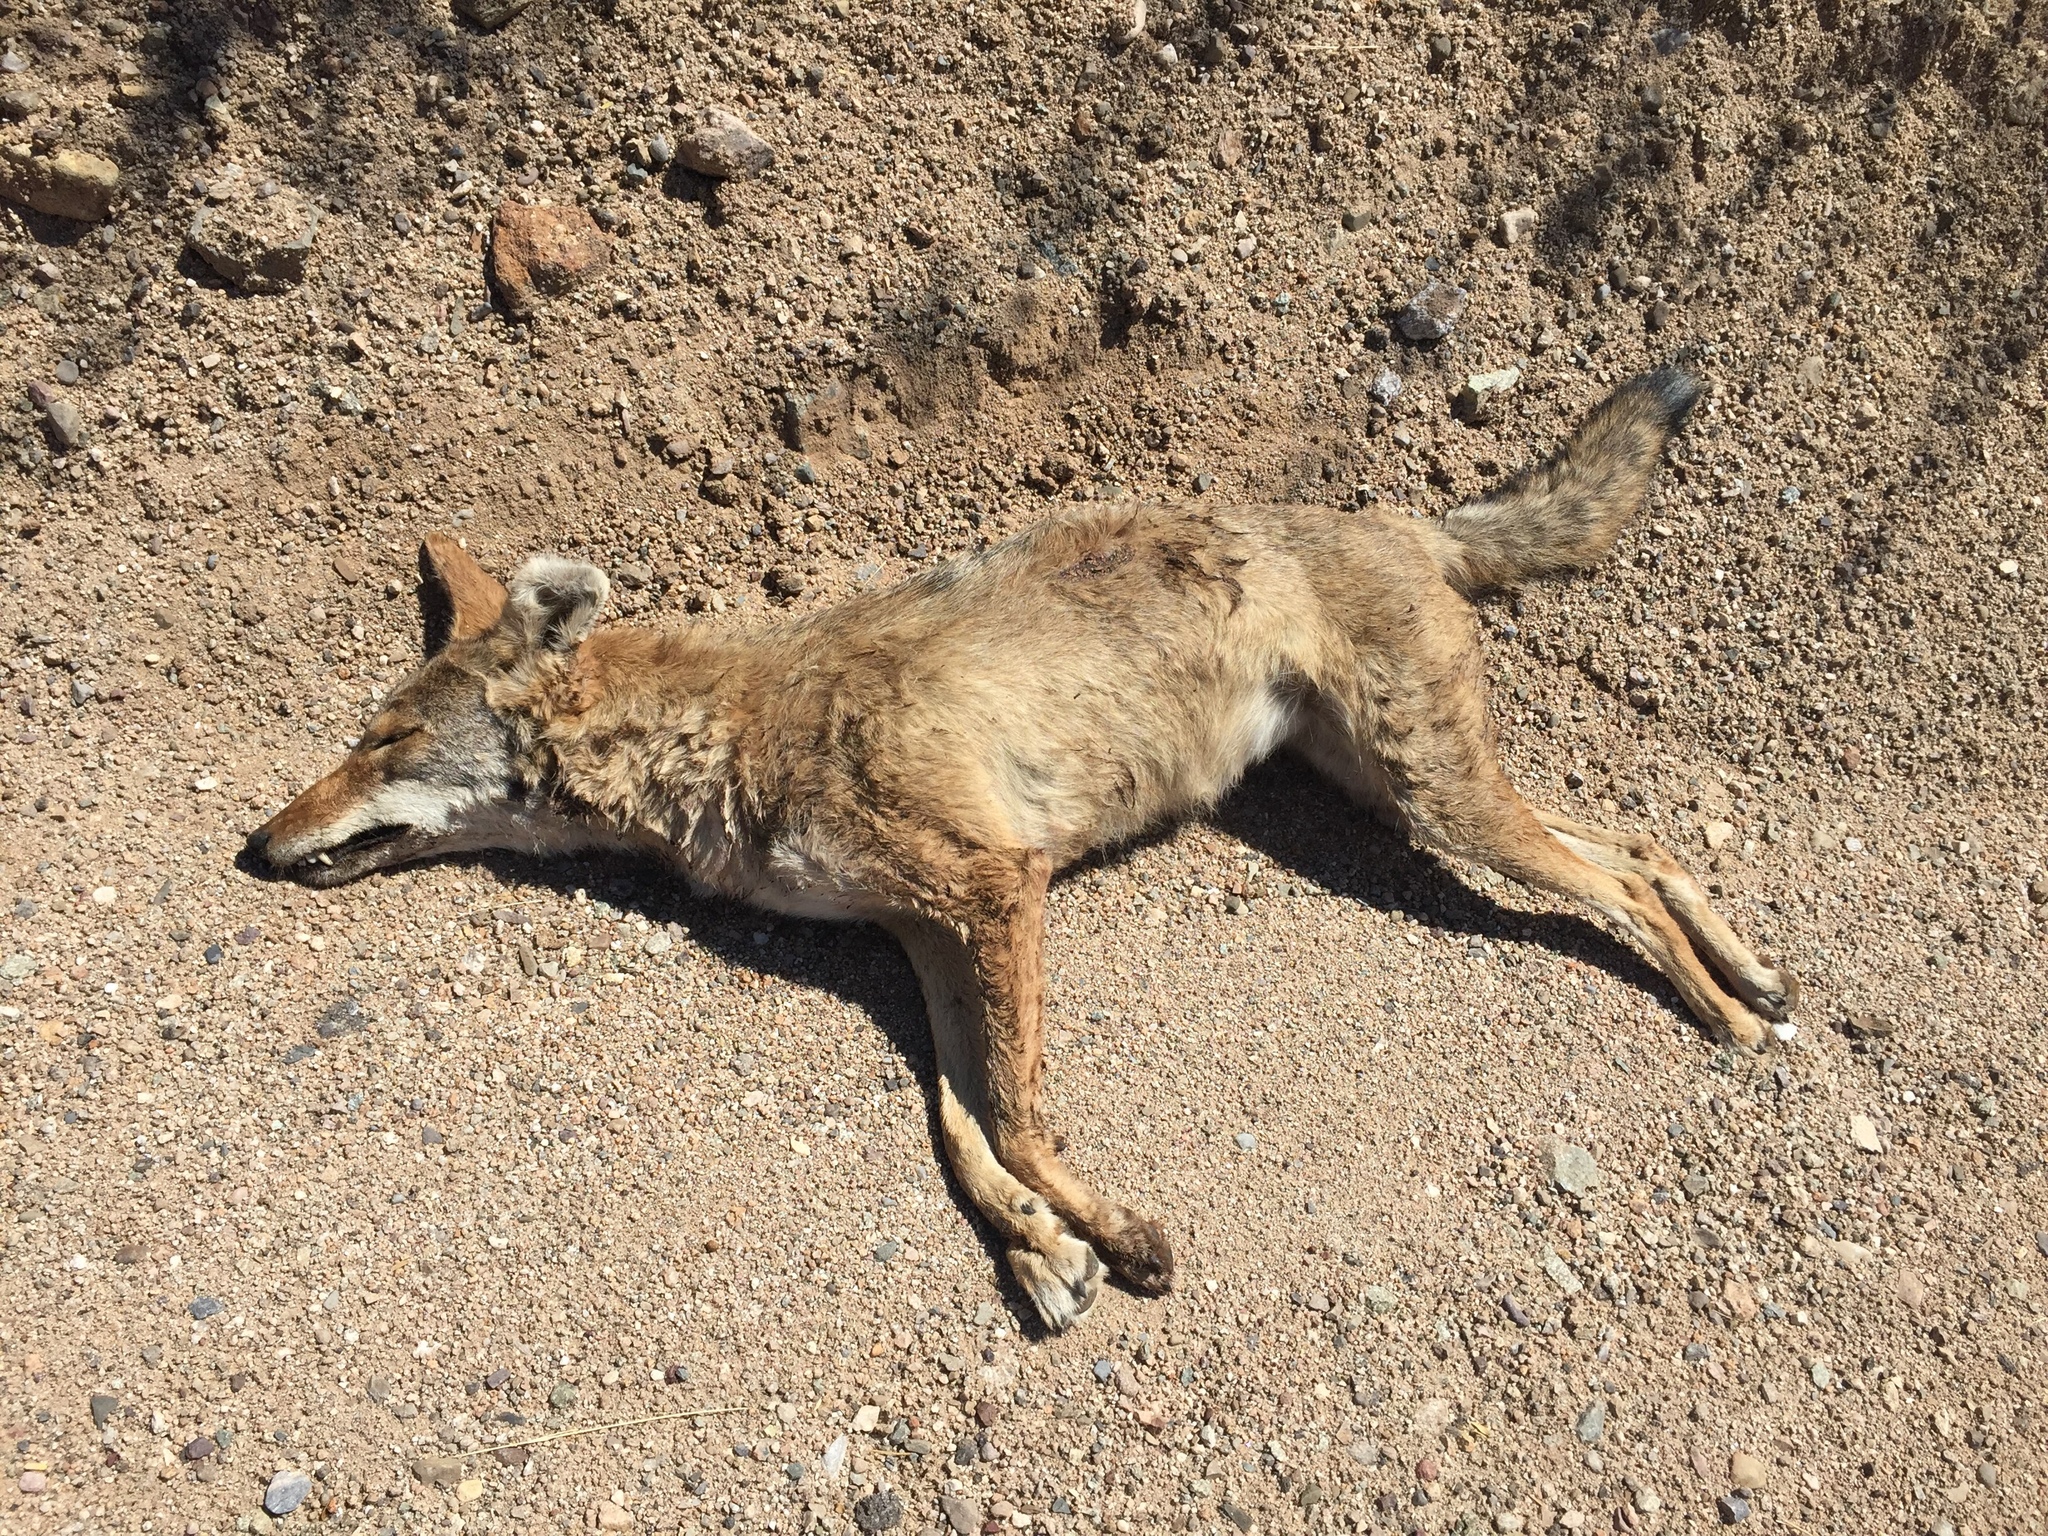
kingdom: Animalia
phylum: Chordata
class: Mammalia
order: Carnivora
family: Canidae
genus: Canis
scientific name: Canis latrans
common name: Coyote
